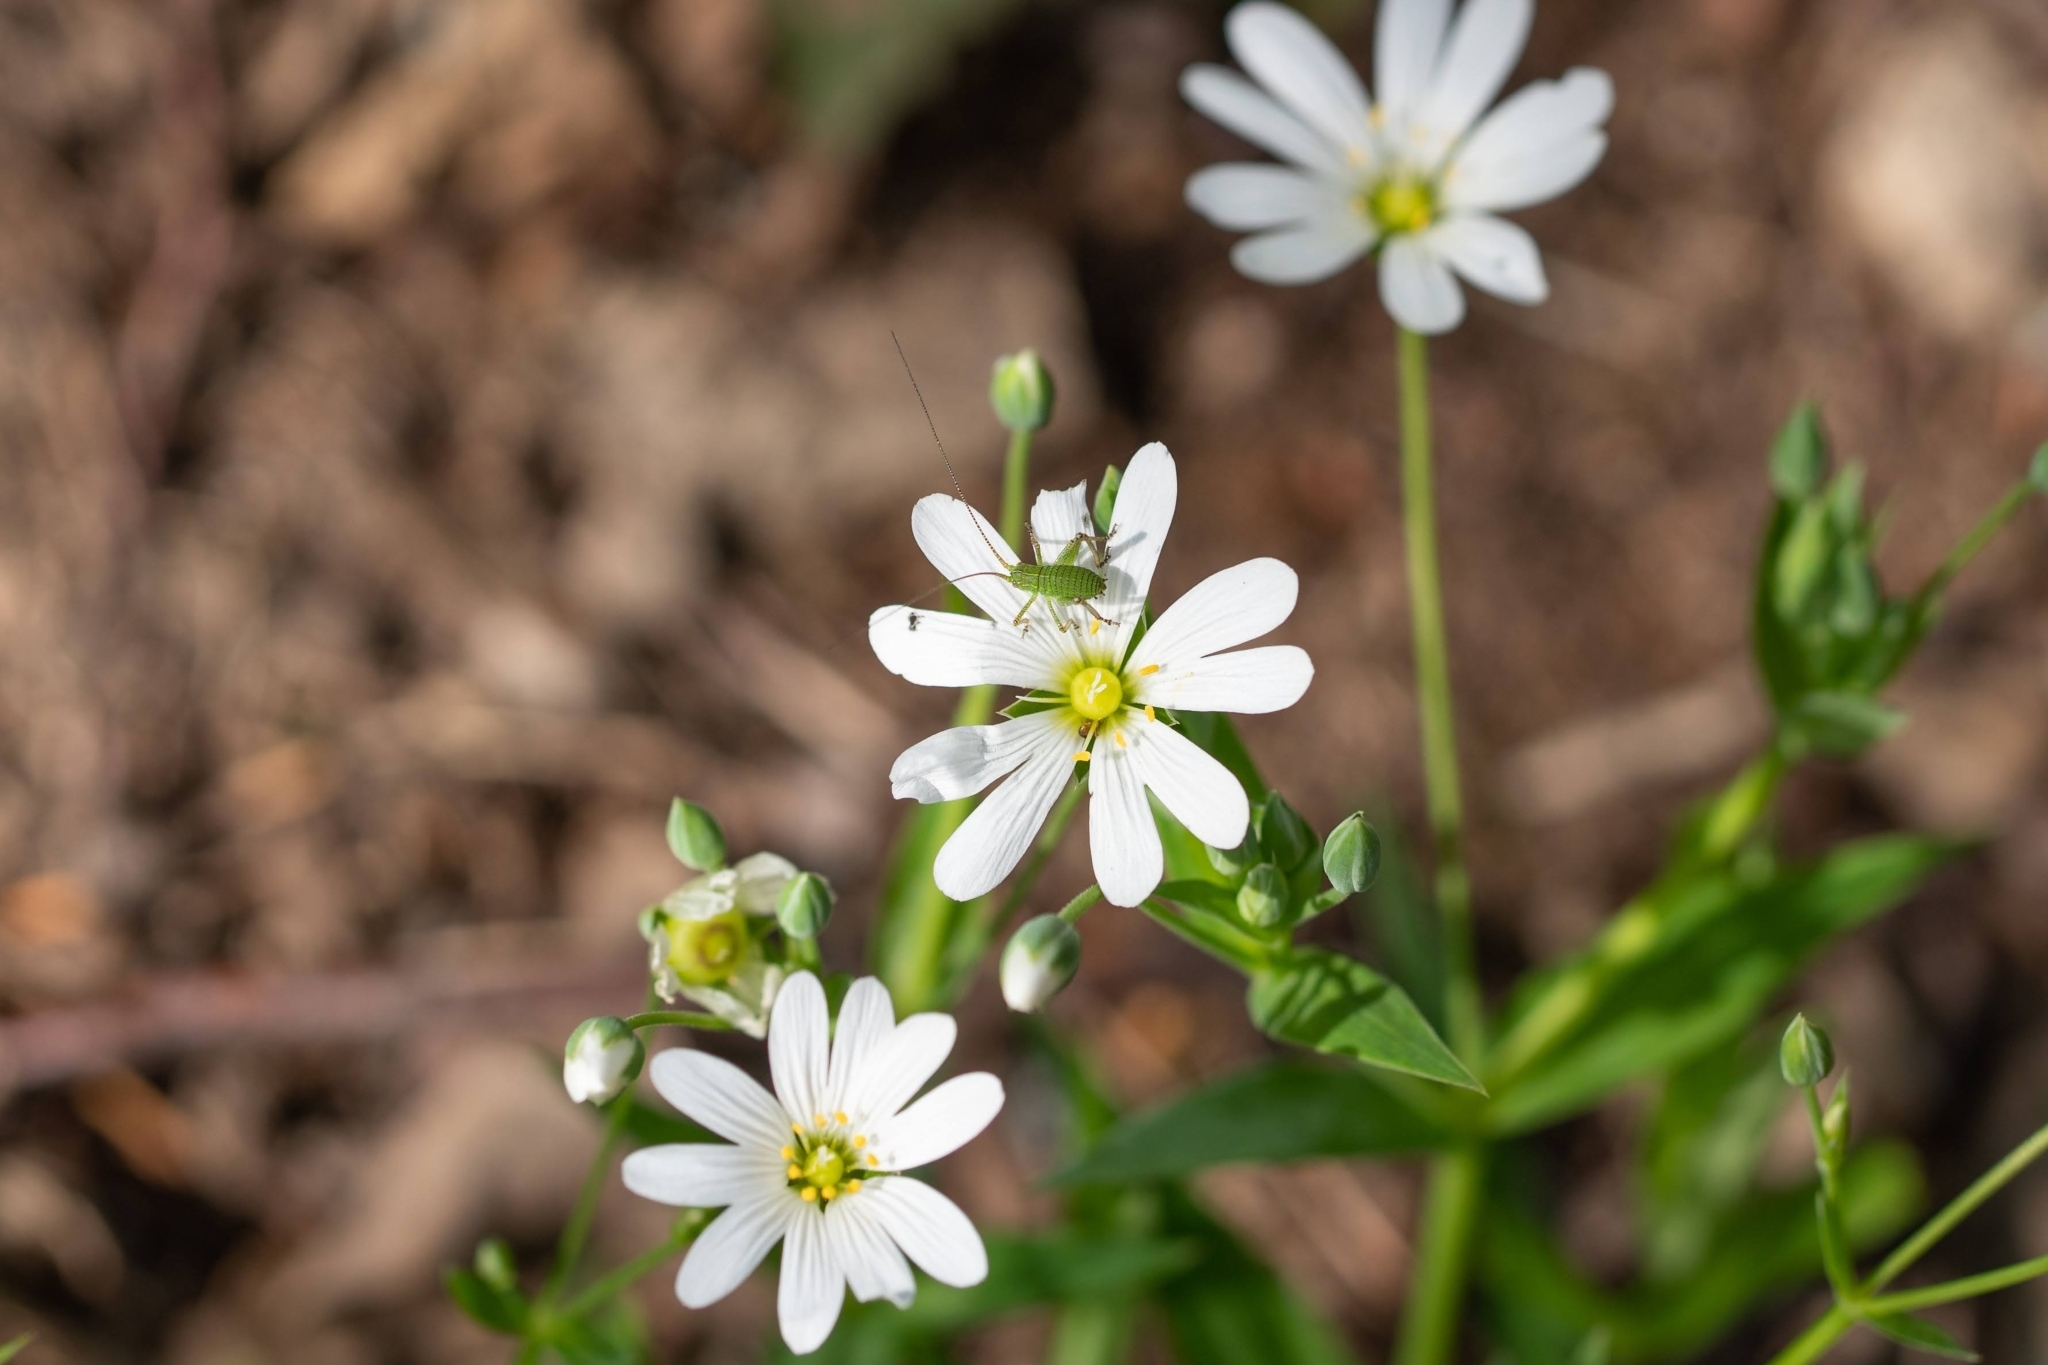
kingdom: Plantae
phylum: Tracheophyta
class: Magnoliopsida
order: Caryophyllales
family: Caryophyllaceae
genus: Rabelera
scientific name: Rabelera holostea
